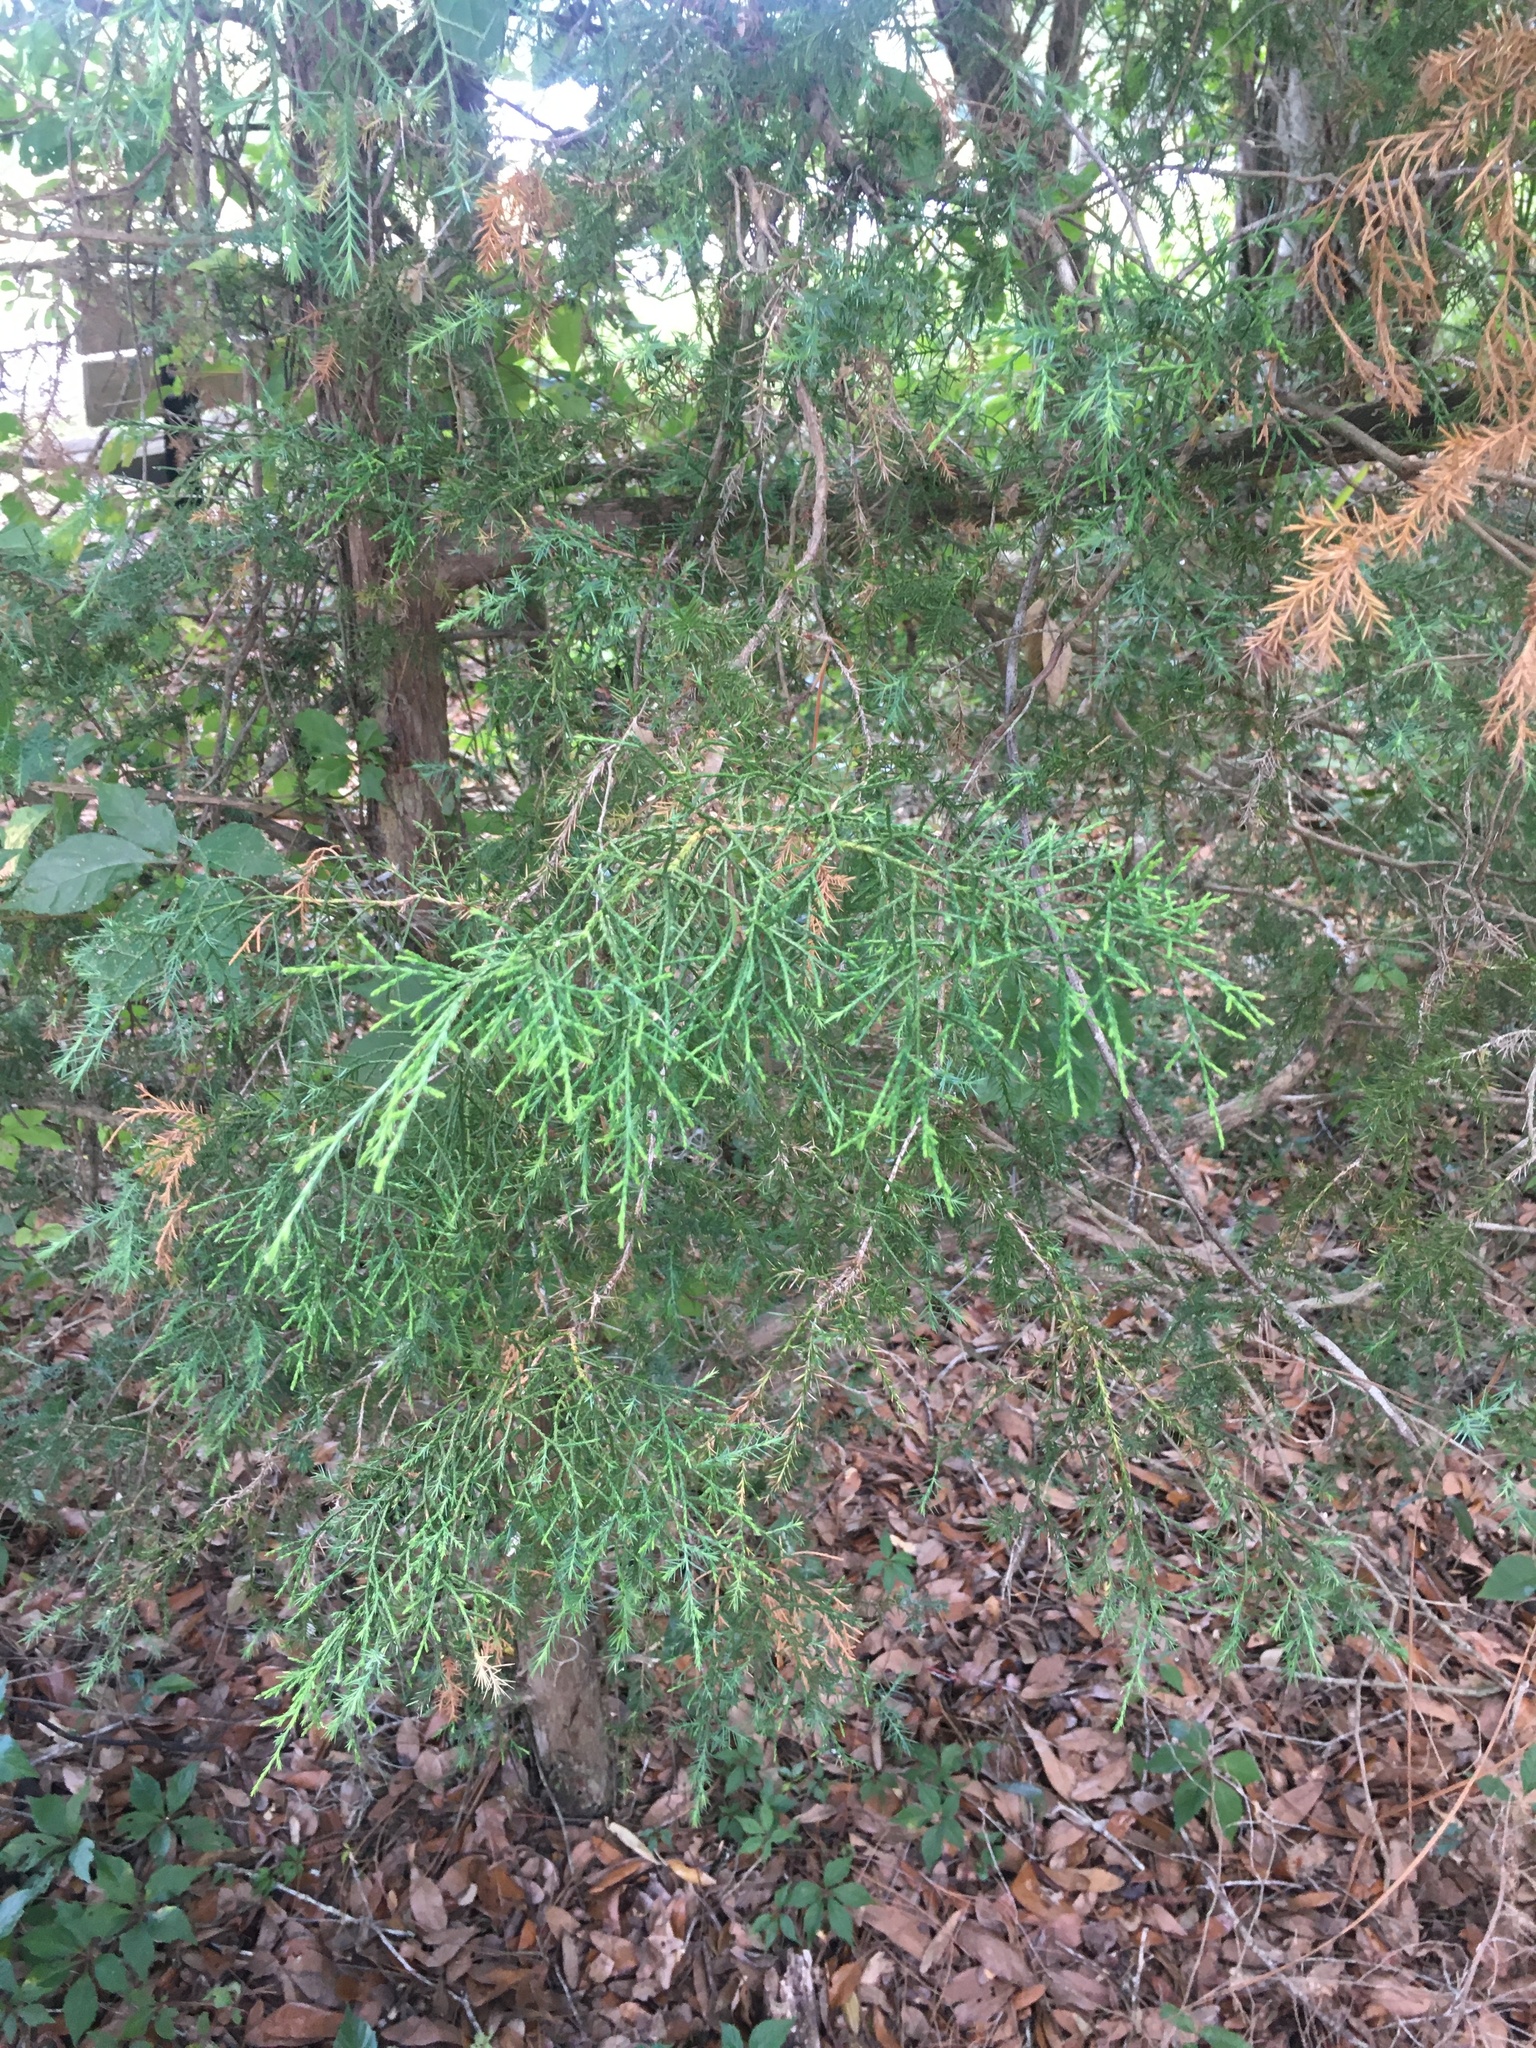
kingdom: Plantae
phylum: Tracheophyta
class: Pinopsida
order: Pinales
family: Cupressaceae
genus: Juniperus
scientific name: Juniperus virginiana
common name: Red juniper
